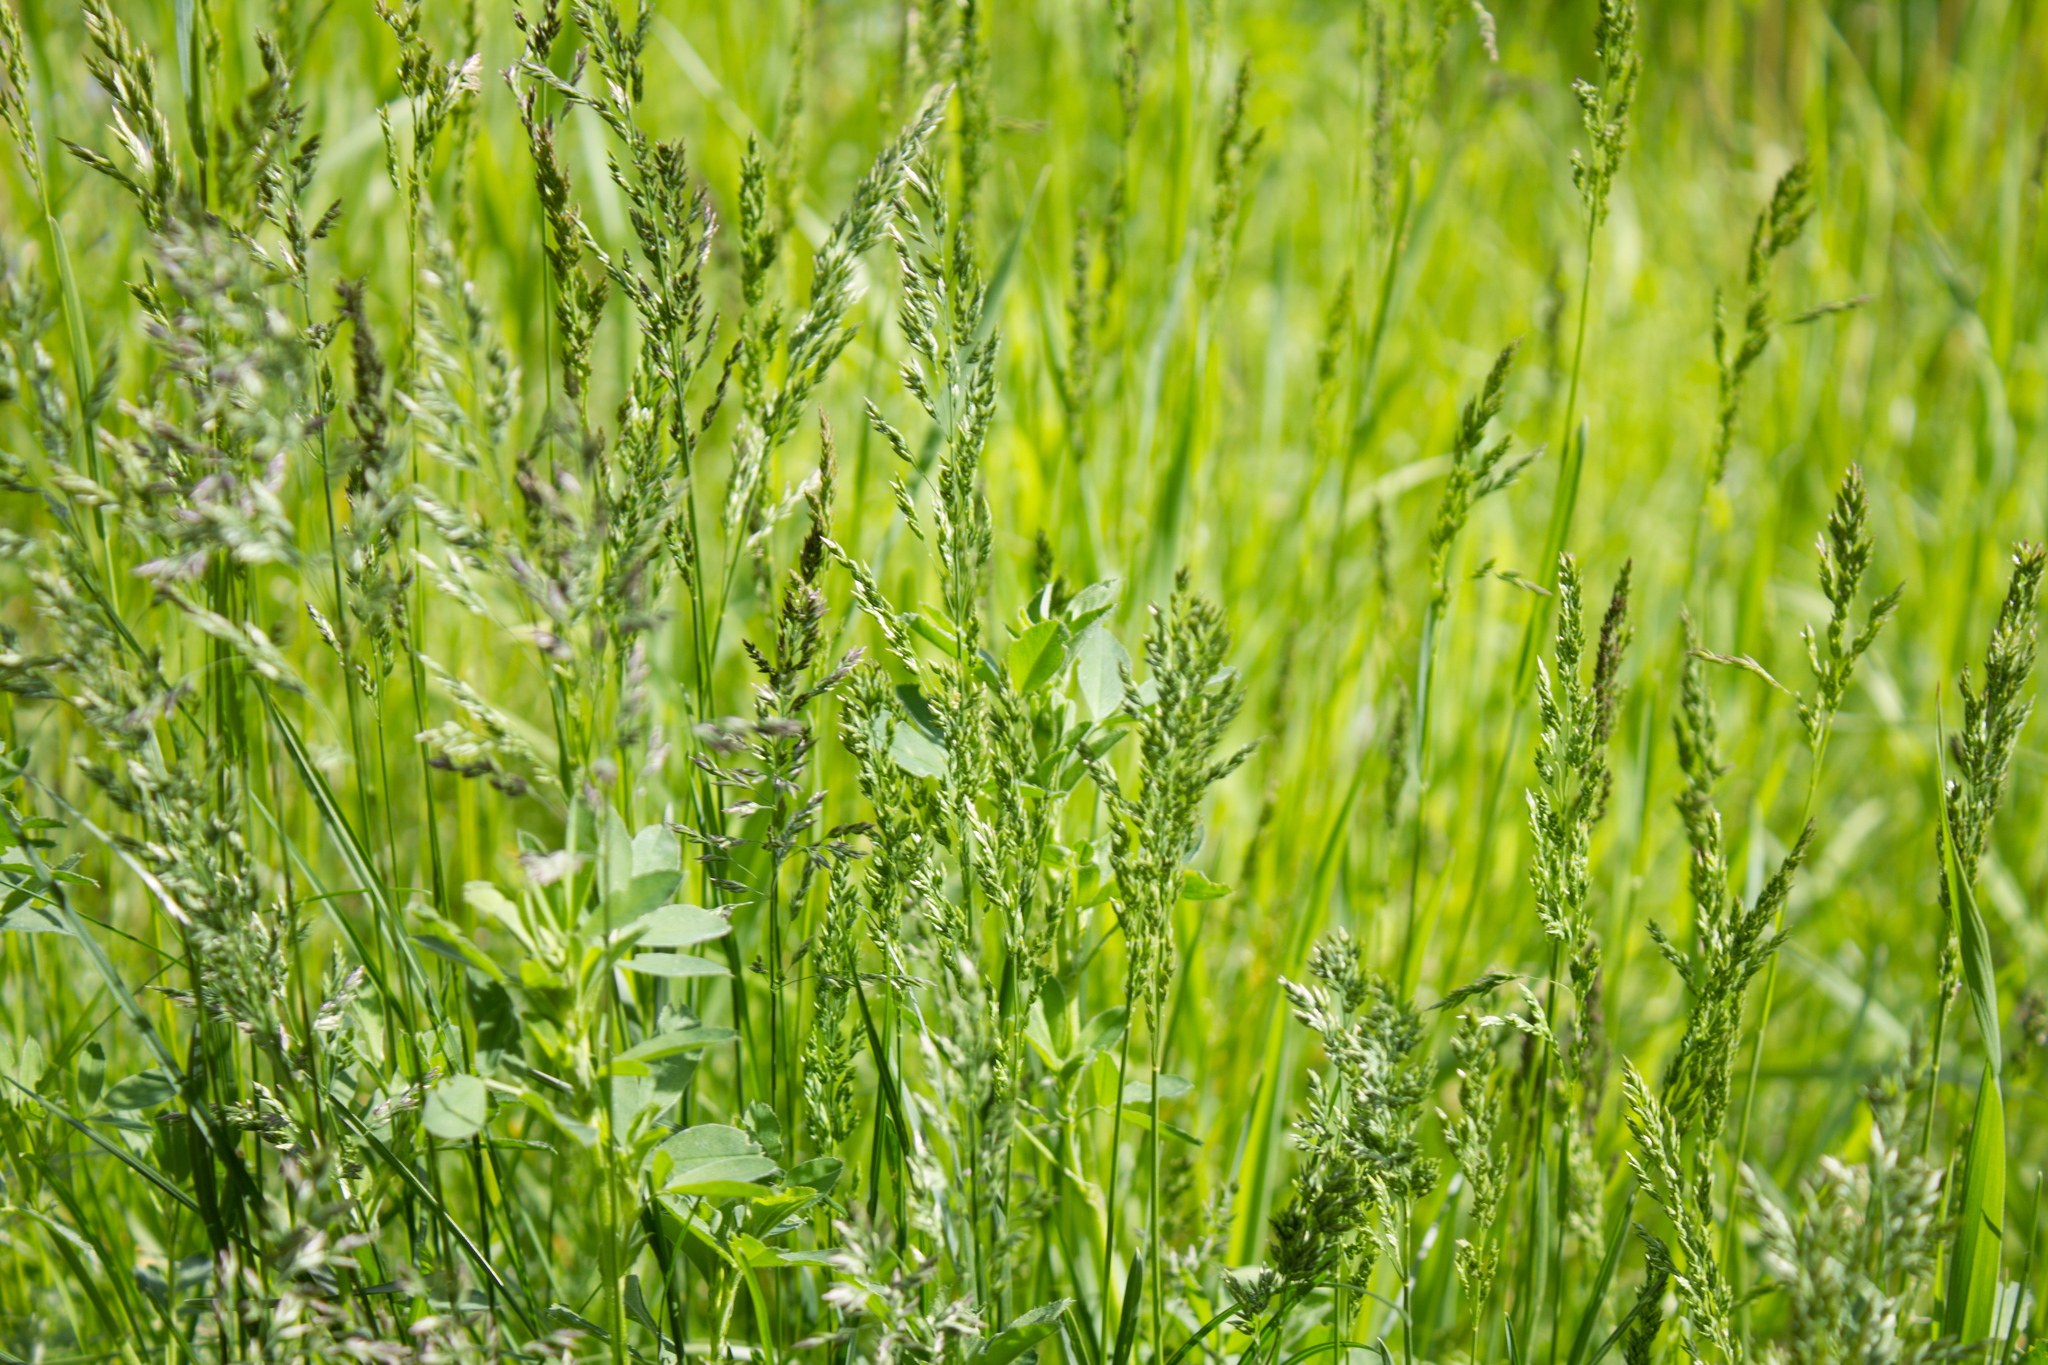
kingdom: Plantae
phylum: Tracheophyta
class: Liliopsida
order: Poales
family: Poaceae
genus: Poa
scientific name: Poa pratensis
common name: Kentucky bluegrass
